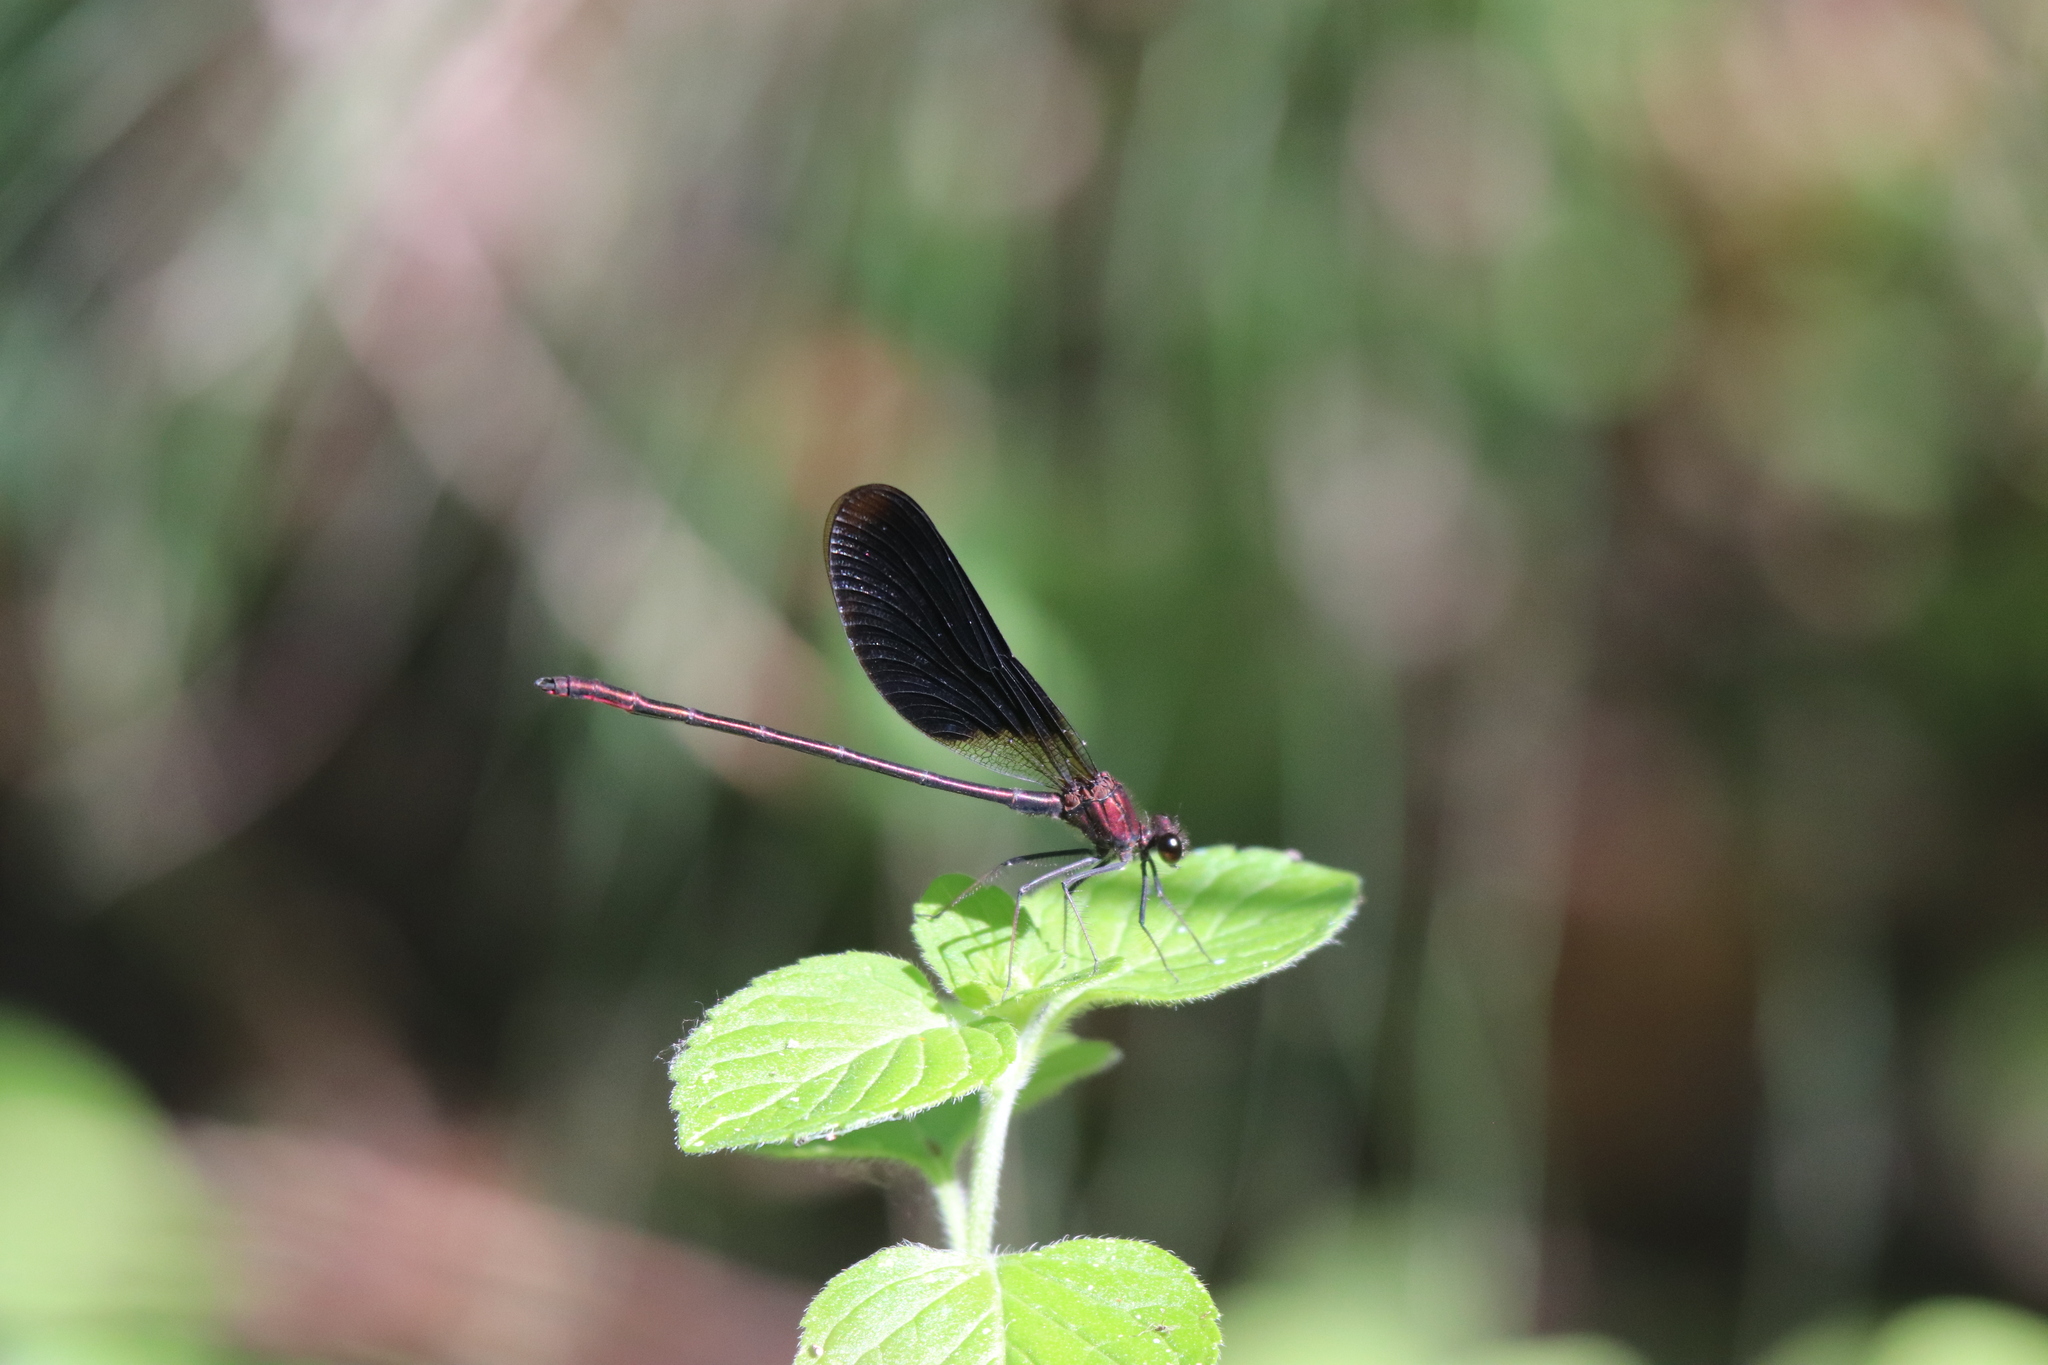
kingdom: Animalia
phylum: Arthropoda
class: Insecta
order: Odonata
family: Calopterygidae
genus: Calopteryx
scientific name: Calopteryx haemorrhoidalis
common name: Copper demoiselle
